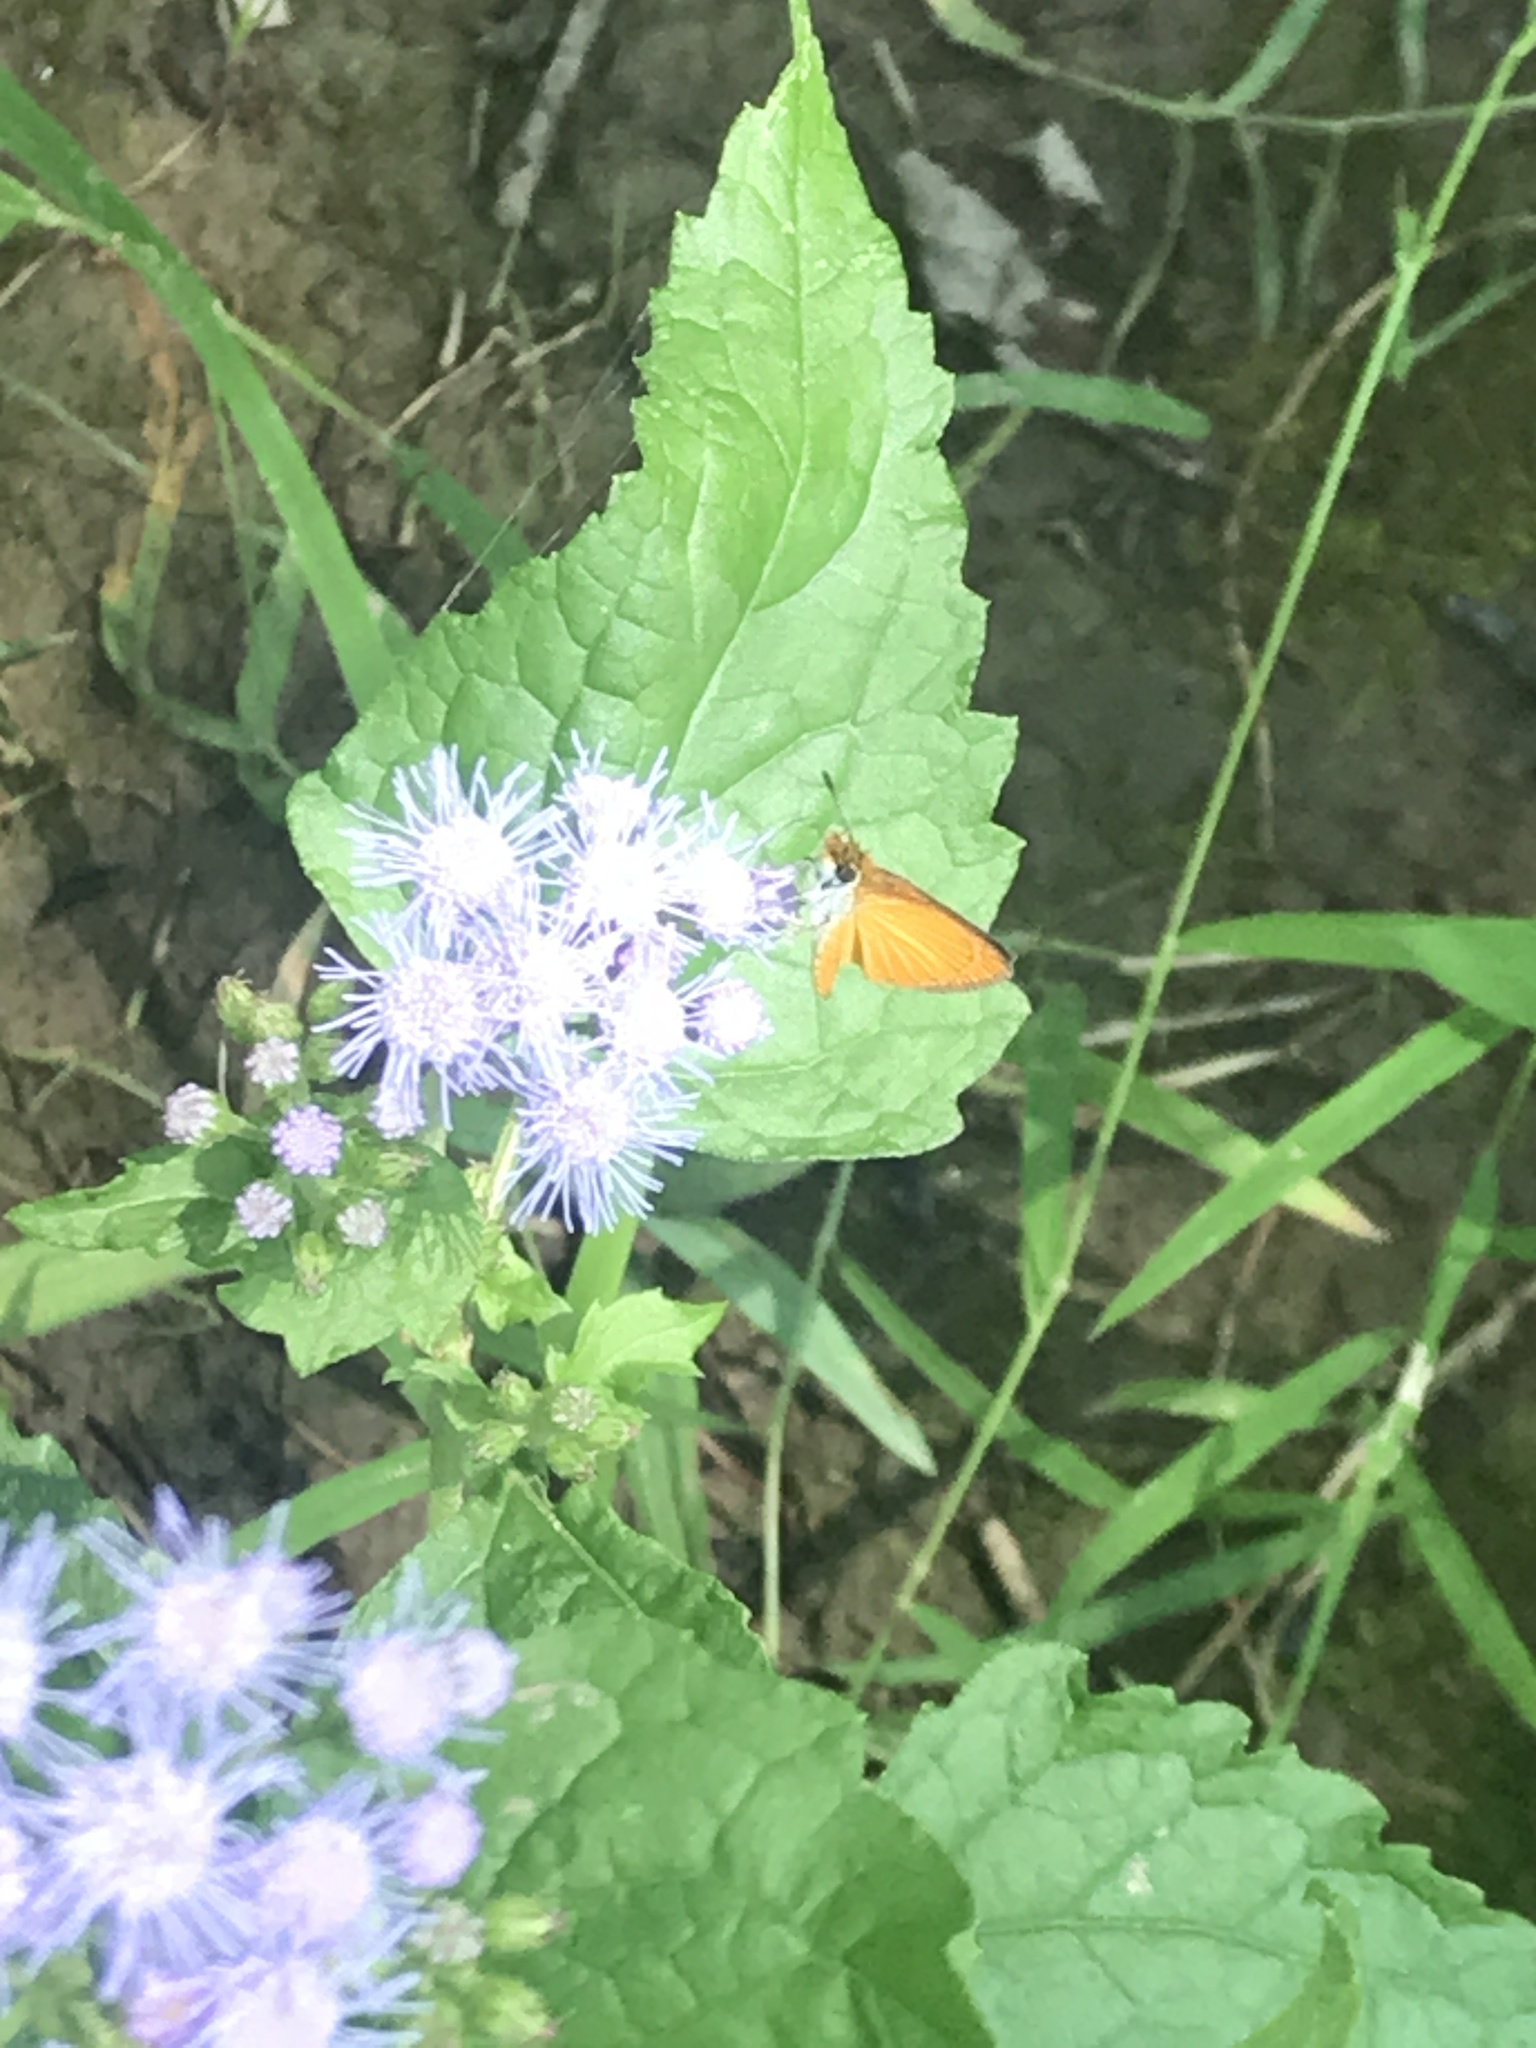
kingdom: Animalia
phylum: Arthropoda
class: Insecta
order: Lepidoptera
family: Hesperiidae
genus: Ancyloxypha
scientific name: Ancyloxypha numitor
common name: Least skipper
